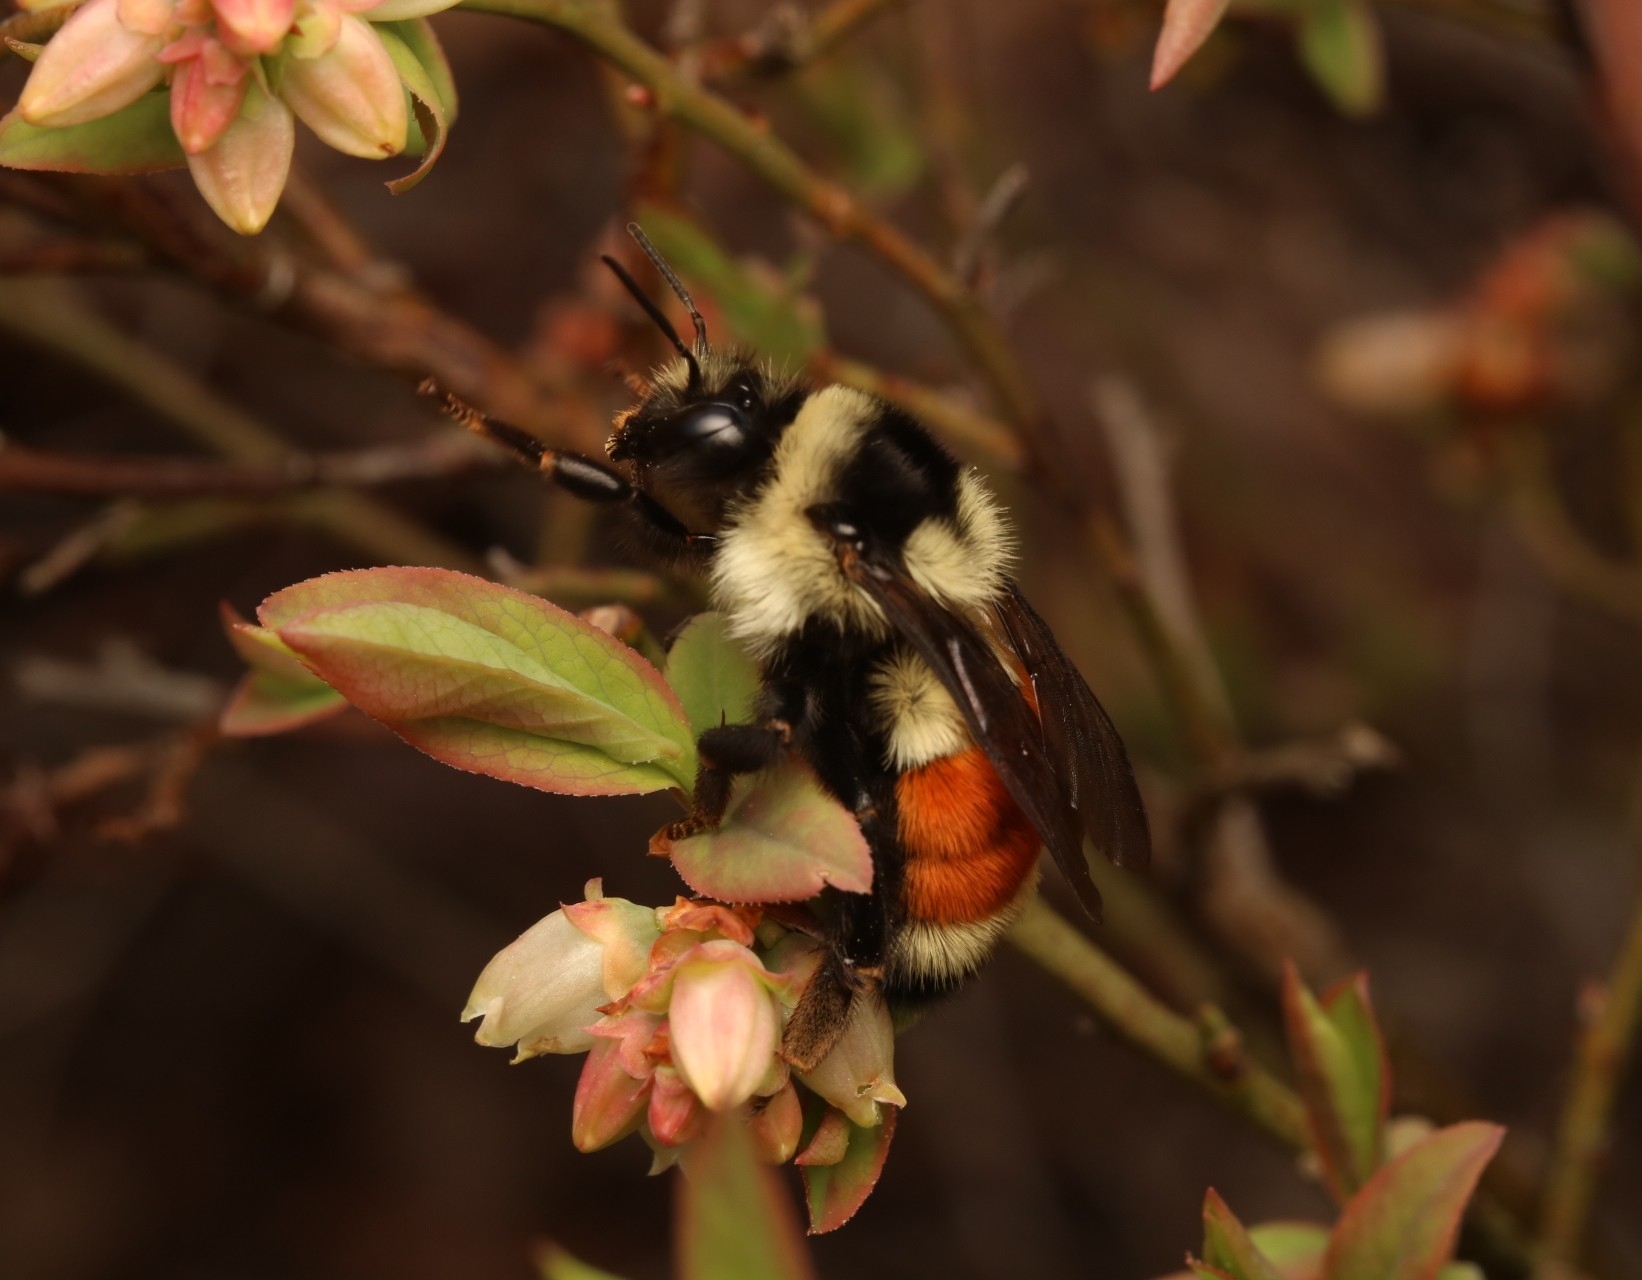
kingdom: Animalia
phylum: Arthropoda
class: Insecta
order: Hymenoptera
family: Apidae
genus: Bombus
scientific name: Bombus ternarius
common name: Tri-colored bumble bee
